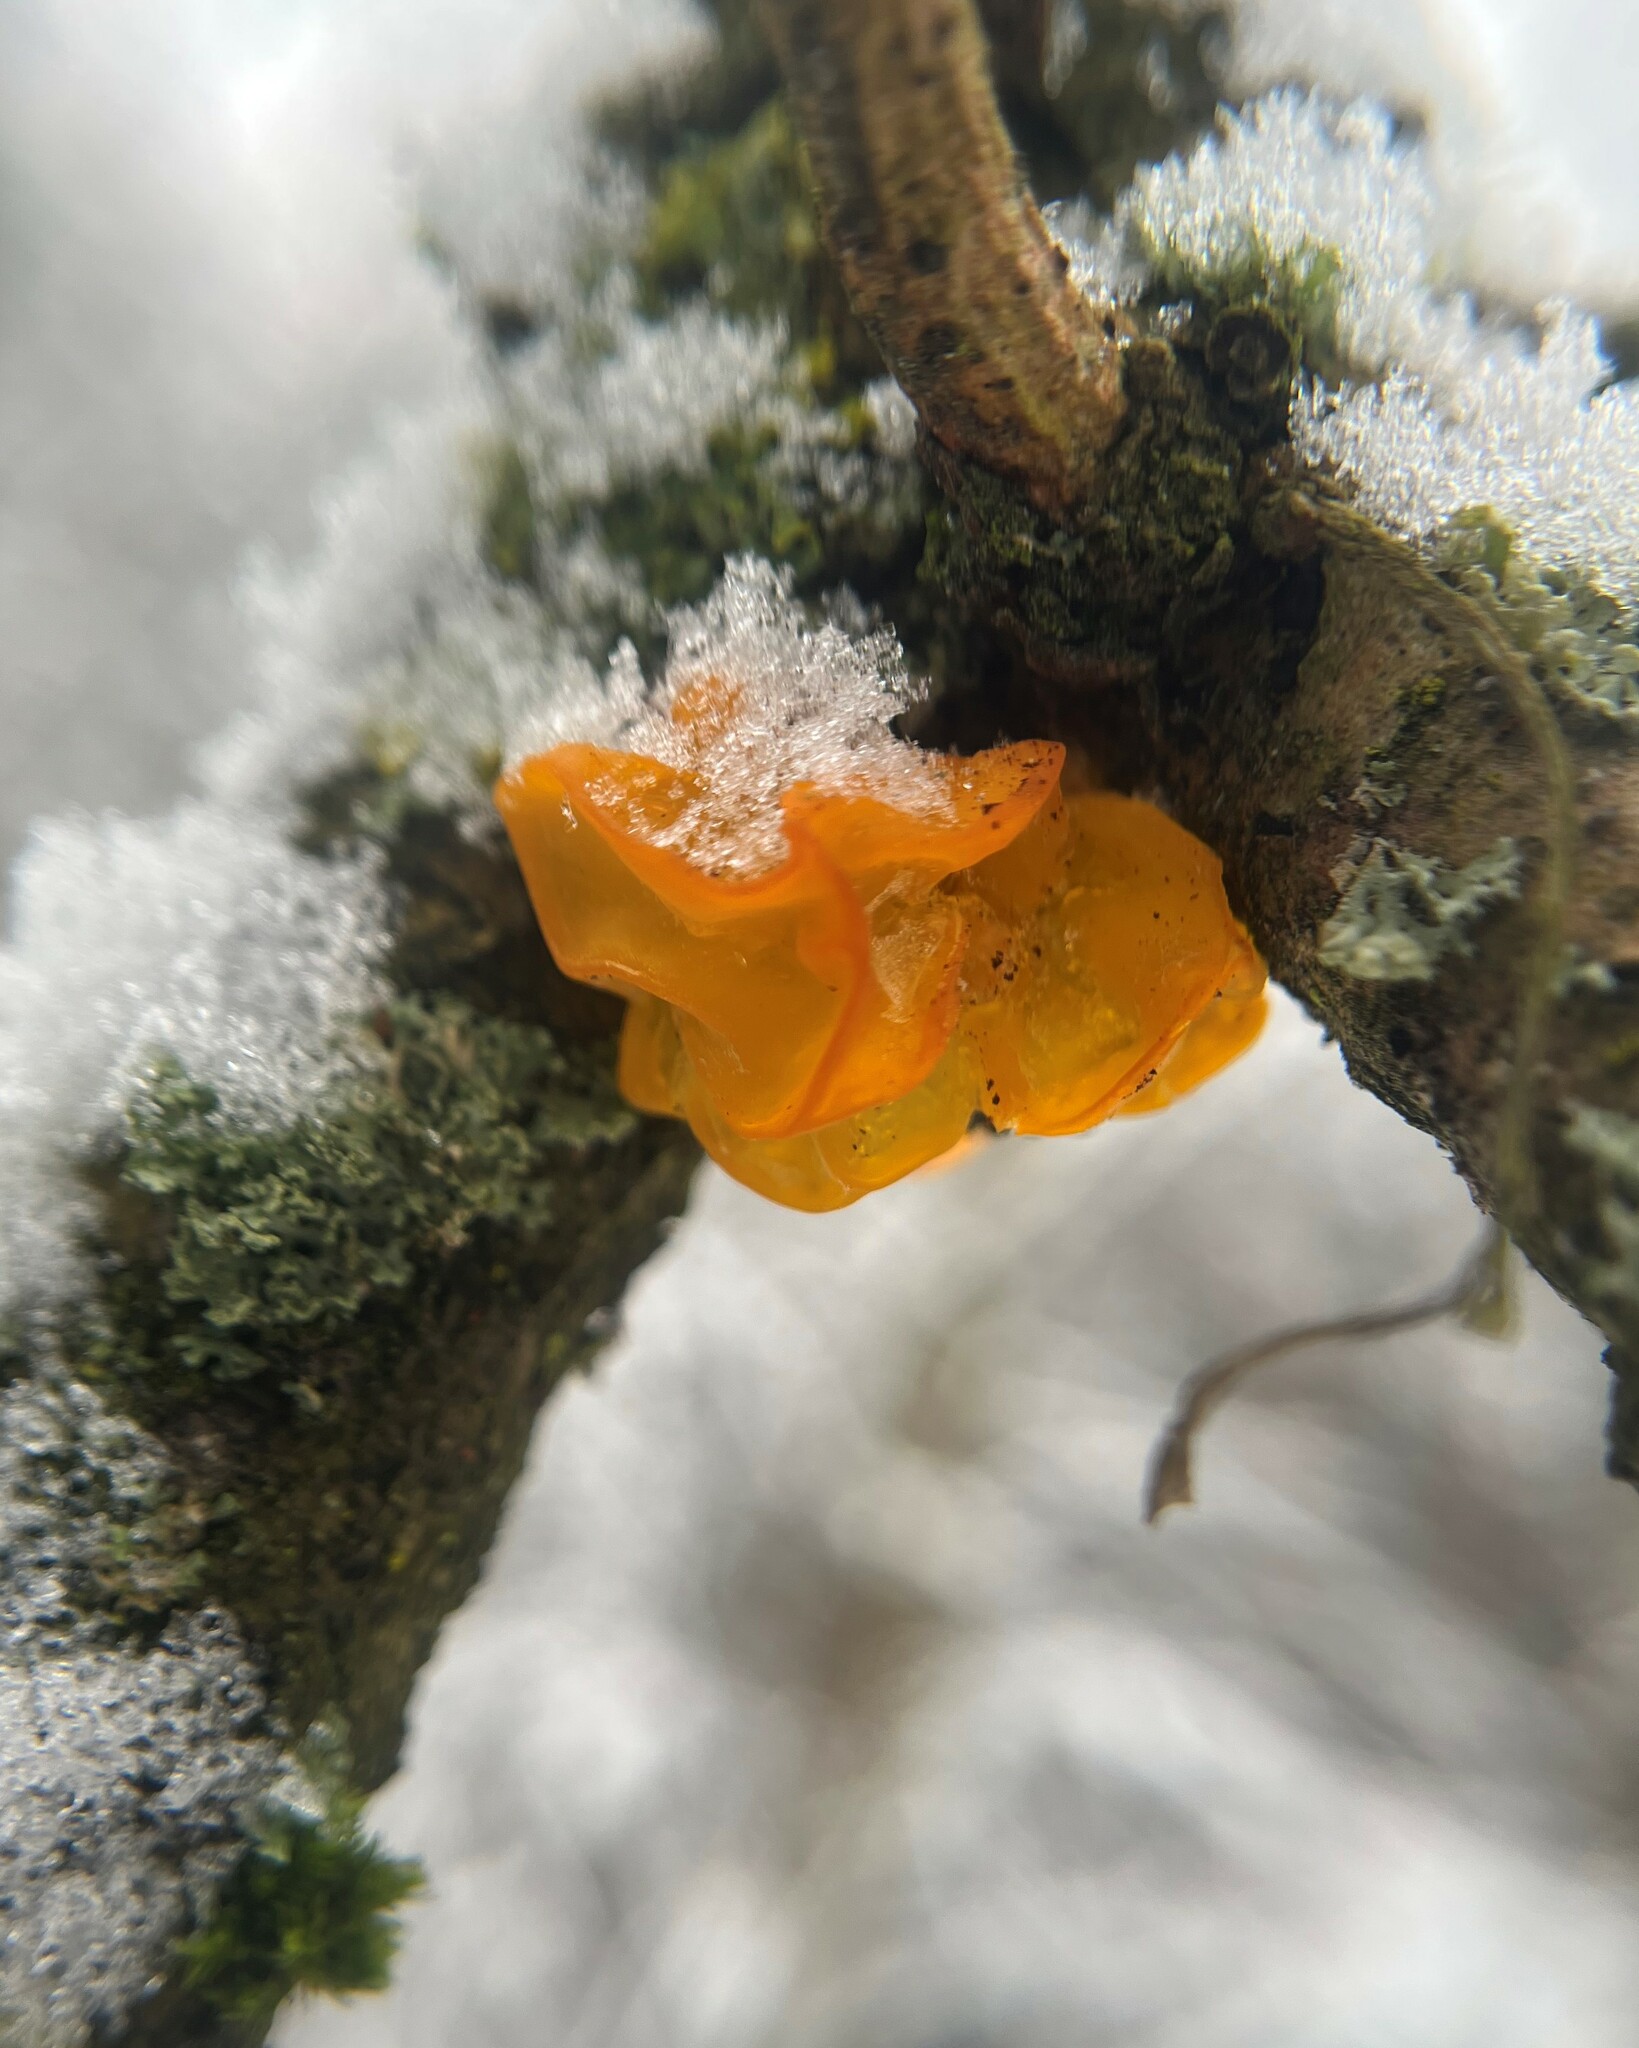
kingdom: Fungi
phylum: Basidiomycota
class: Tremellomycetes
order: Tremellales
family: Tremellaceae
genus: Tremella
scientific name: Tremella mesenterica
